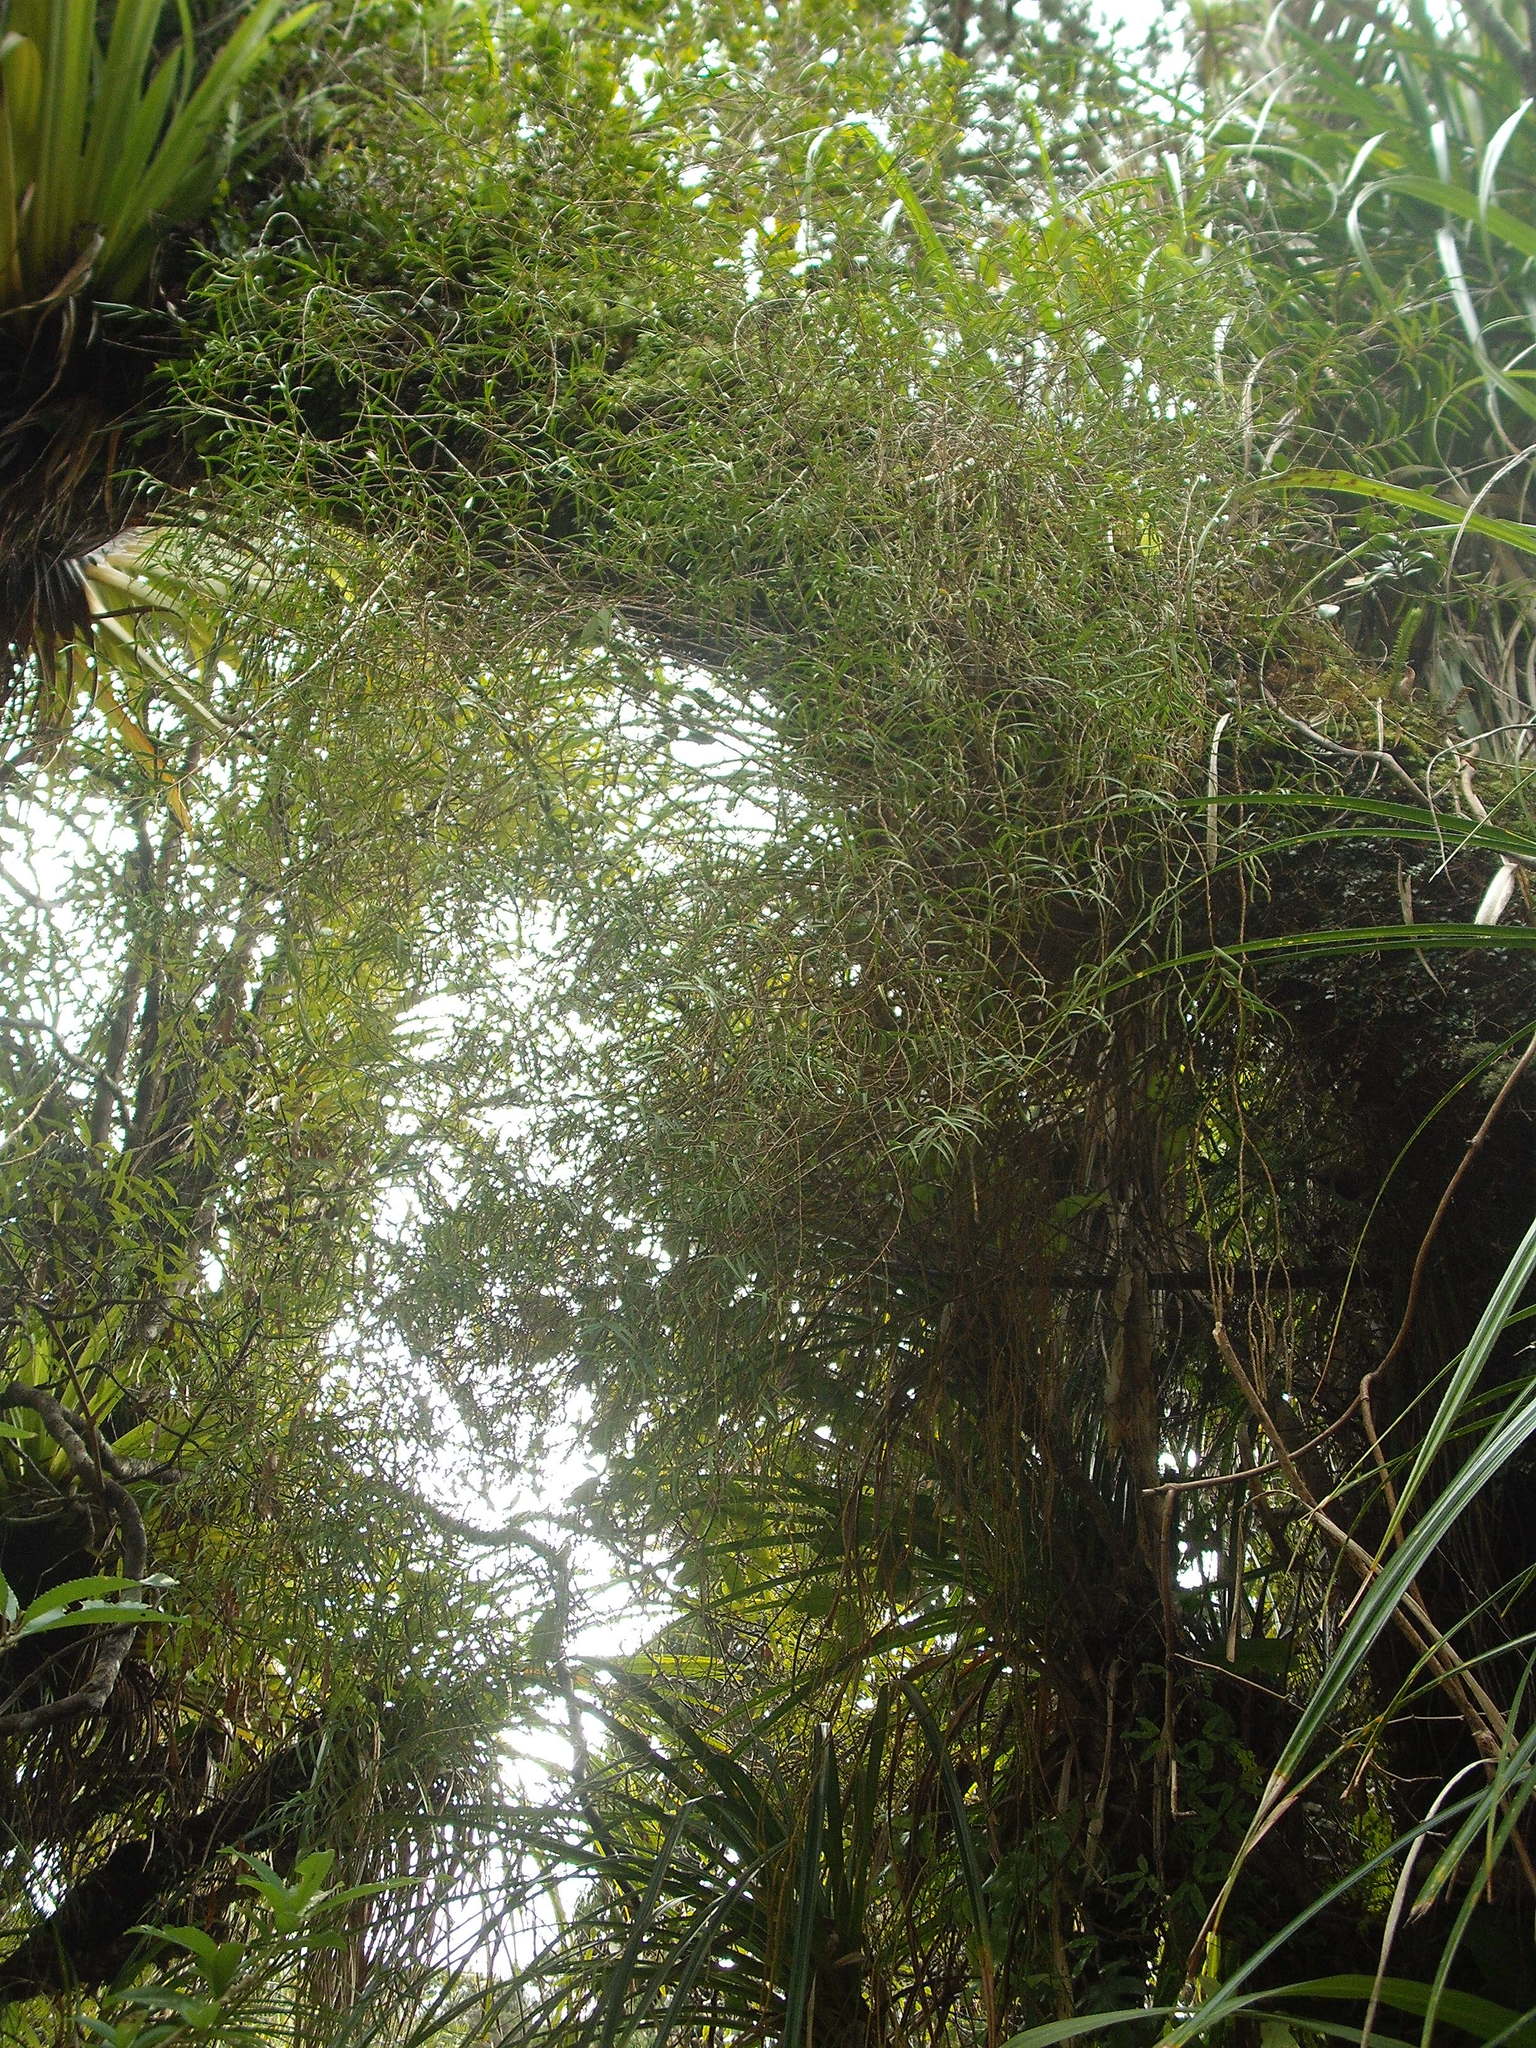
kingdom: Plantae
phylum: Tracheophyta
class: Liliopsida
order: Asparagales
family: Orchidaceae
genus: Dendrobium
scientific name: Dendrobium cunninghamii
